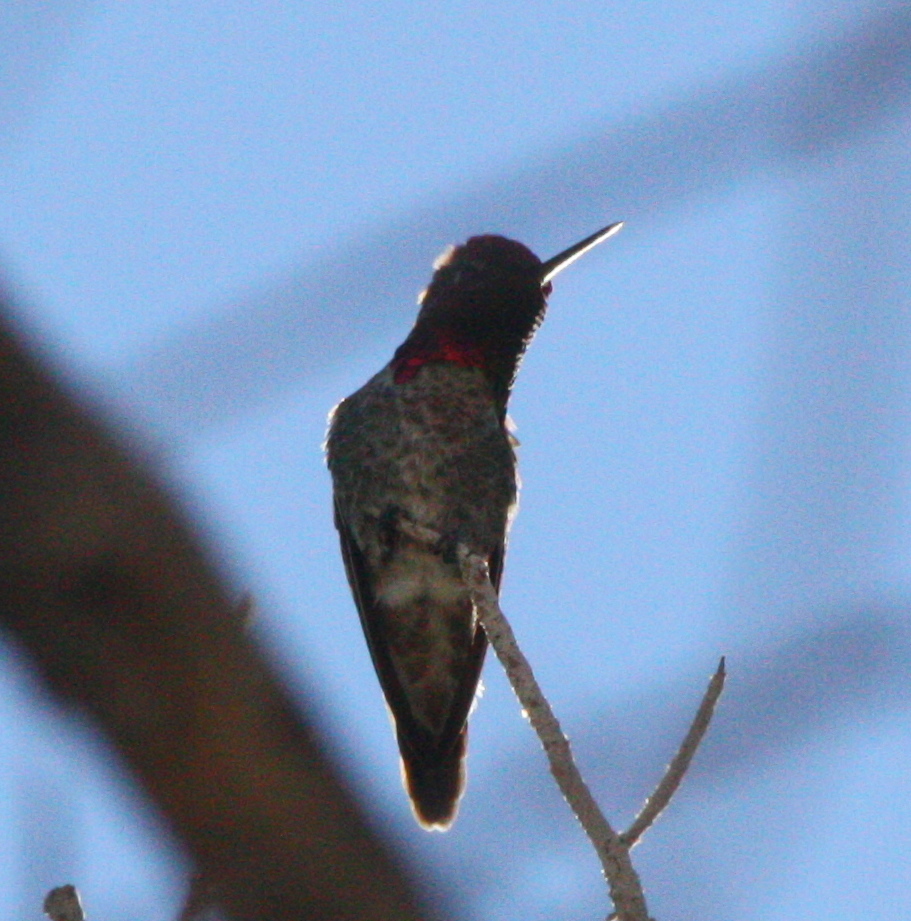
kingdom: Animalia
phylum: Chordata
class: Aves
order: Apodiformes
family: Trochilidae
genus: Calypte
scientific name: Calypte anna
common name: Anna's hummingbird
